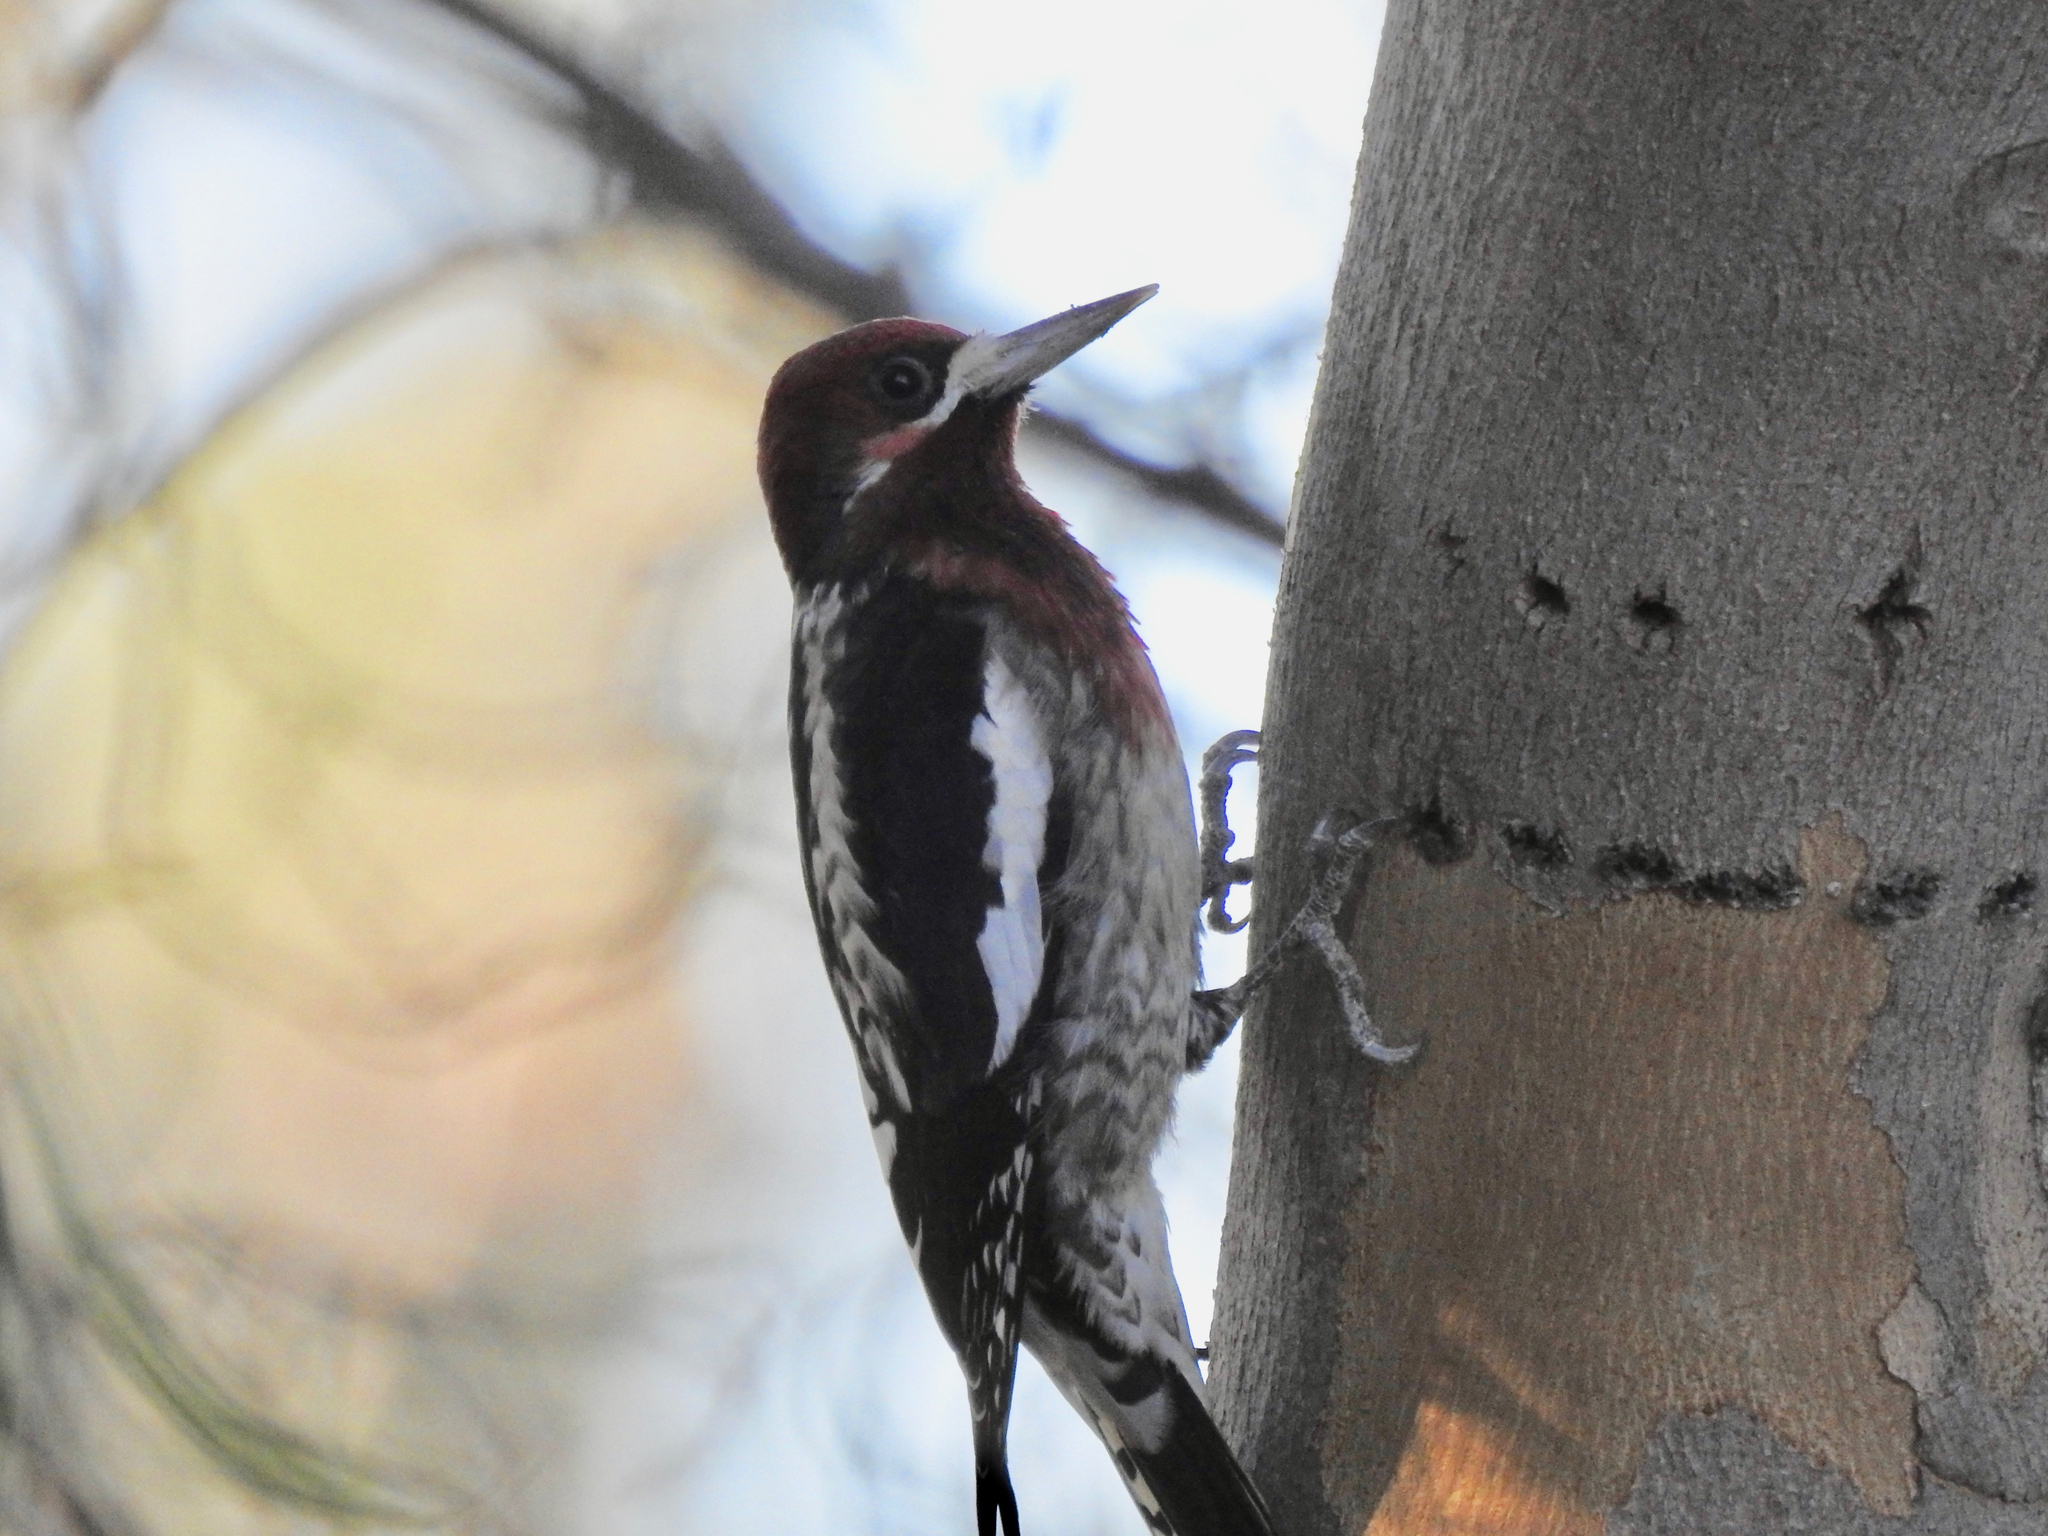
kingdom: Animalia
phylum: Chordata
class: Aves
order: Piciformes
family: Picidae
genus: Sphyrapicus
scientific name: Sphyrapicus ruber
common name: Red-breasted sapsucker
